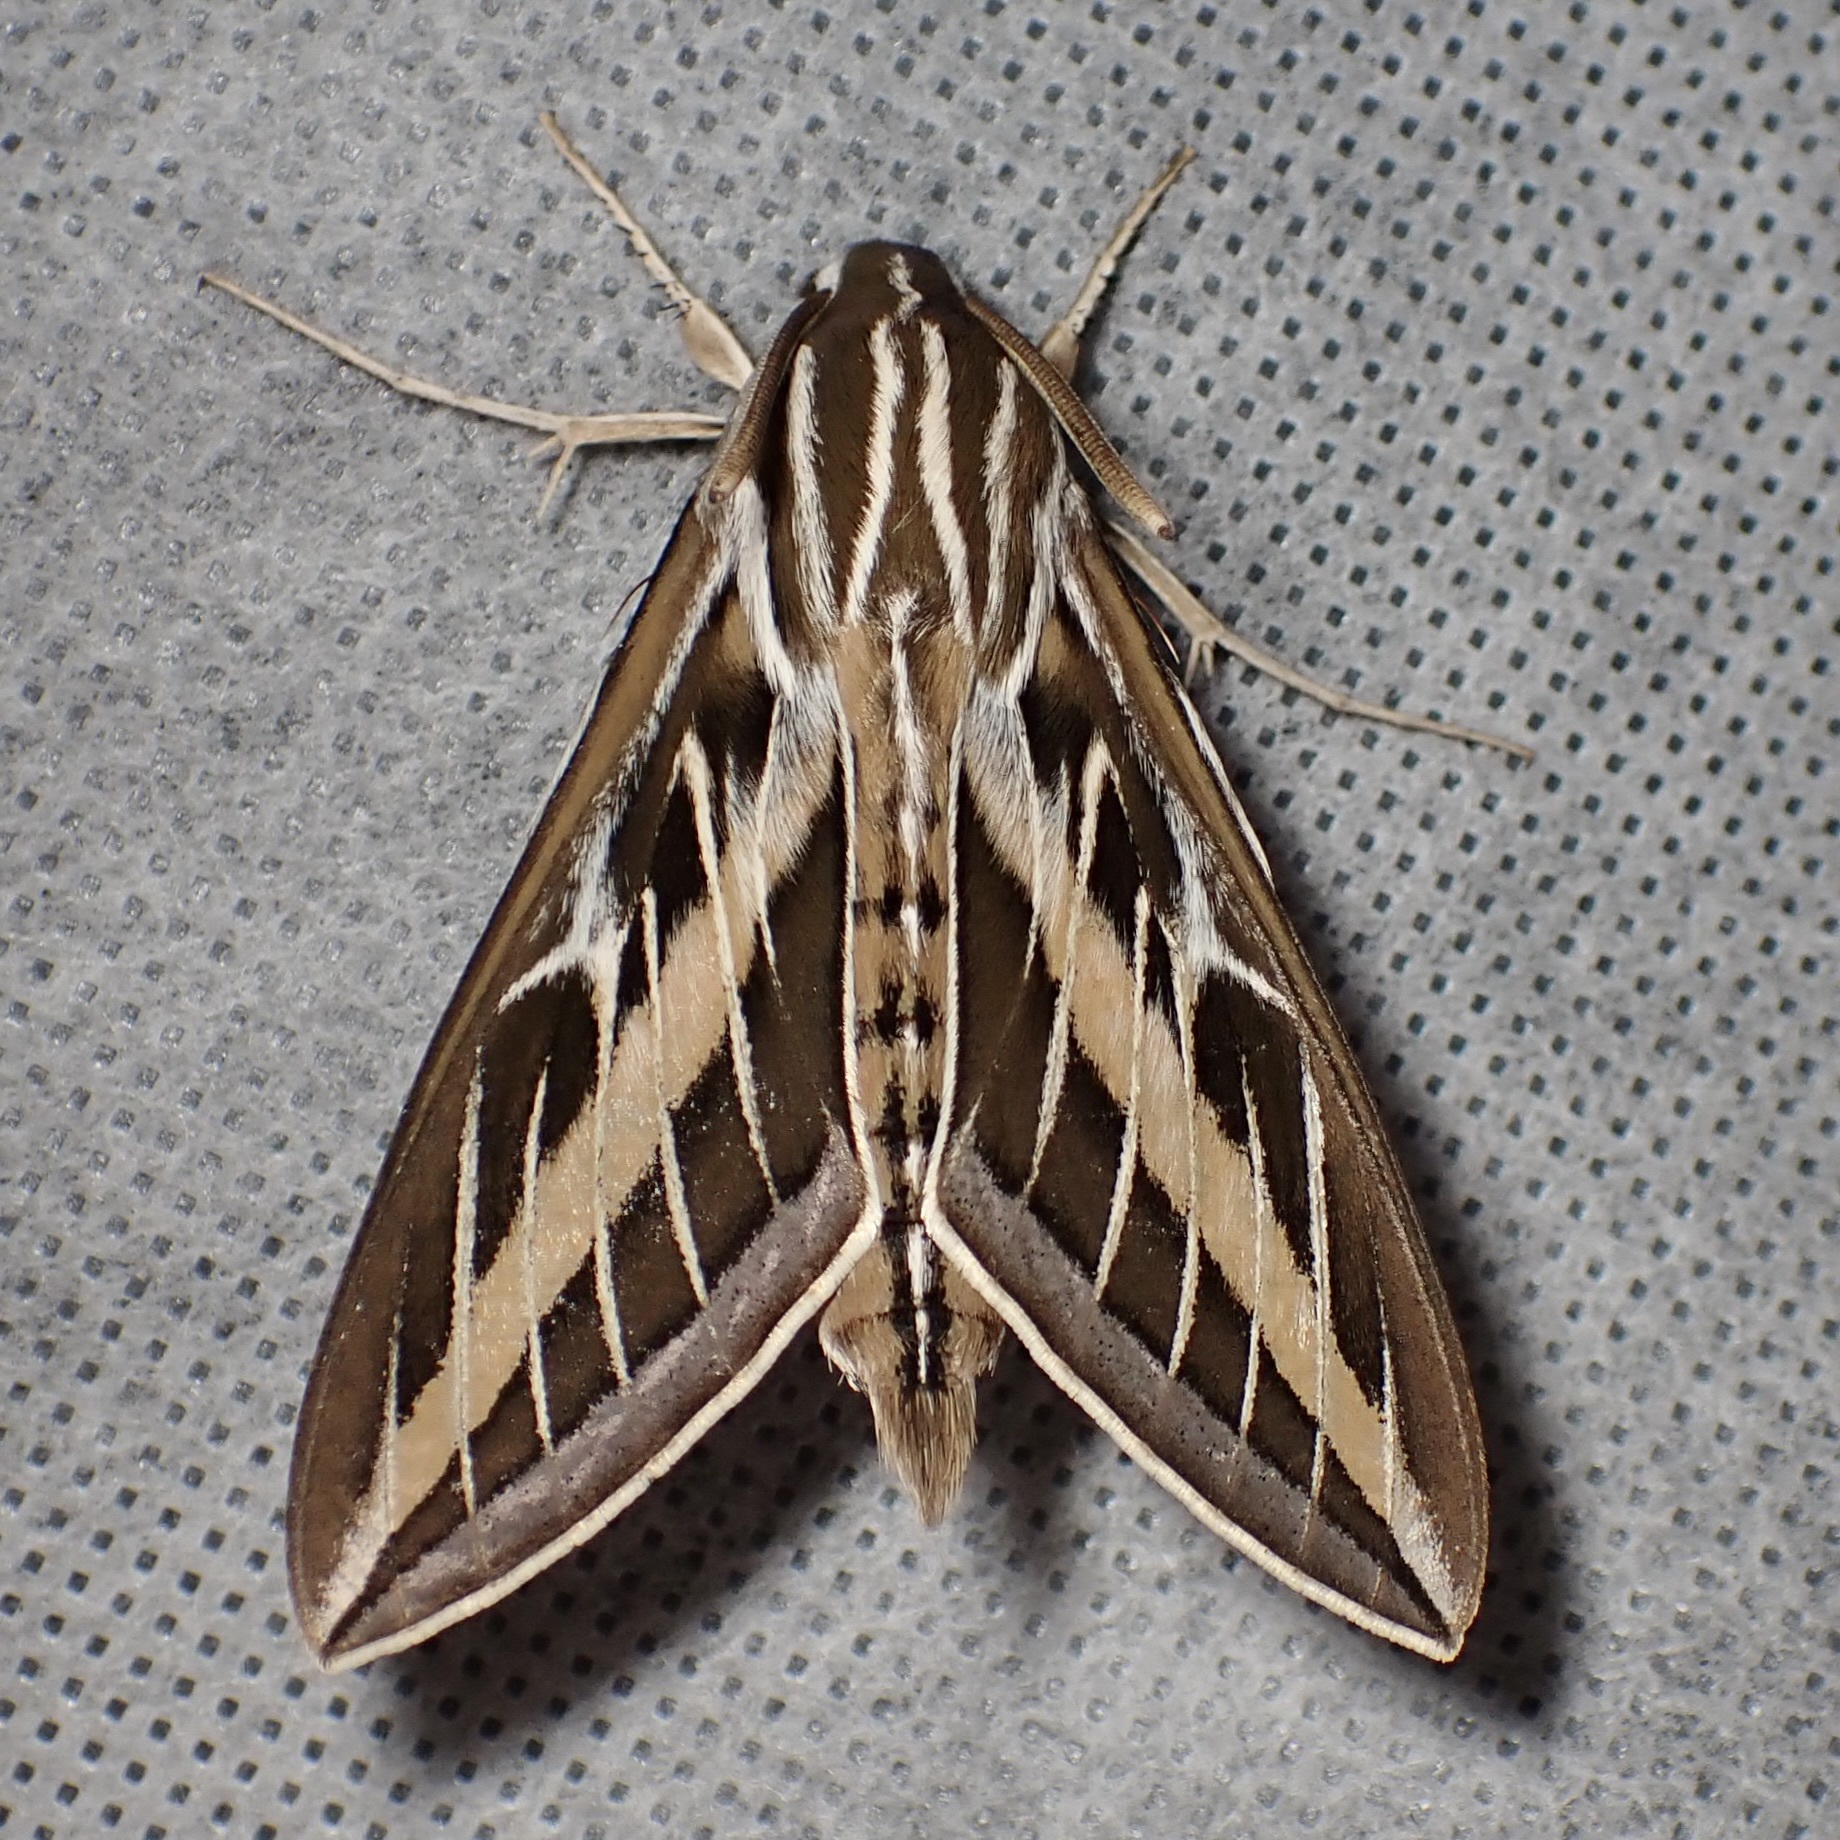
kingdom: Animalia
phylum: Arthropoda
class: Insecta
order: Lepidoptera
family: Sphingidae
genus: Hyles
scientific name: Hyles lineata
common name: White-lined sphinx
